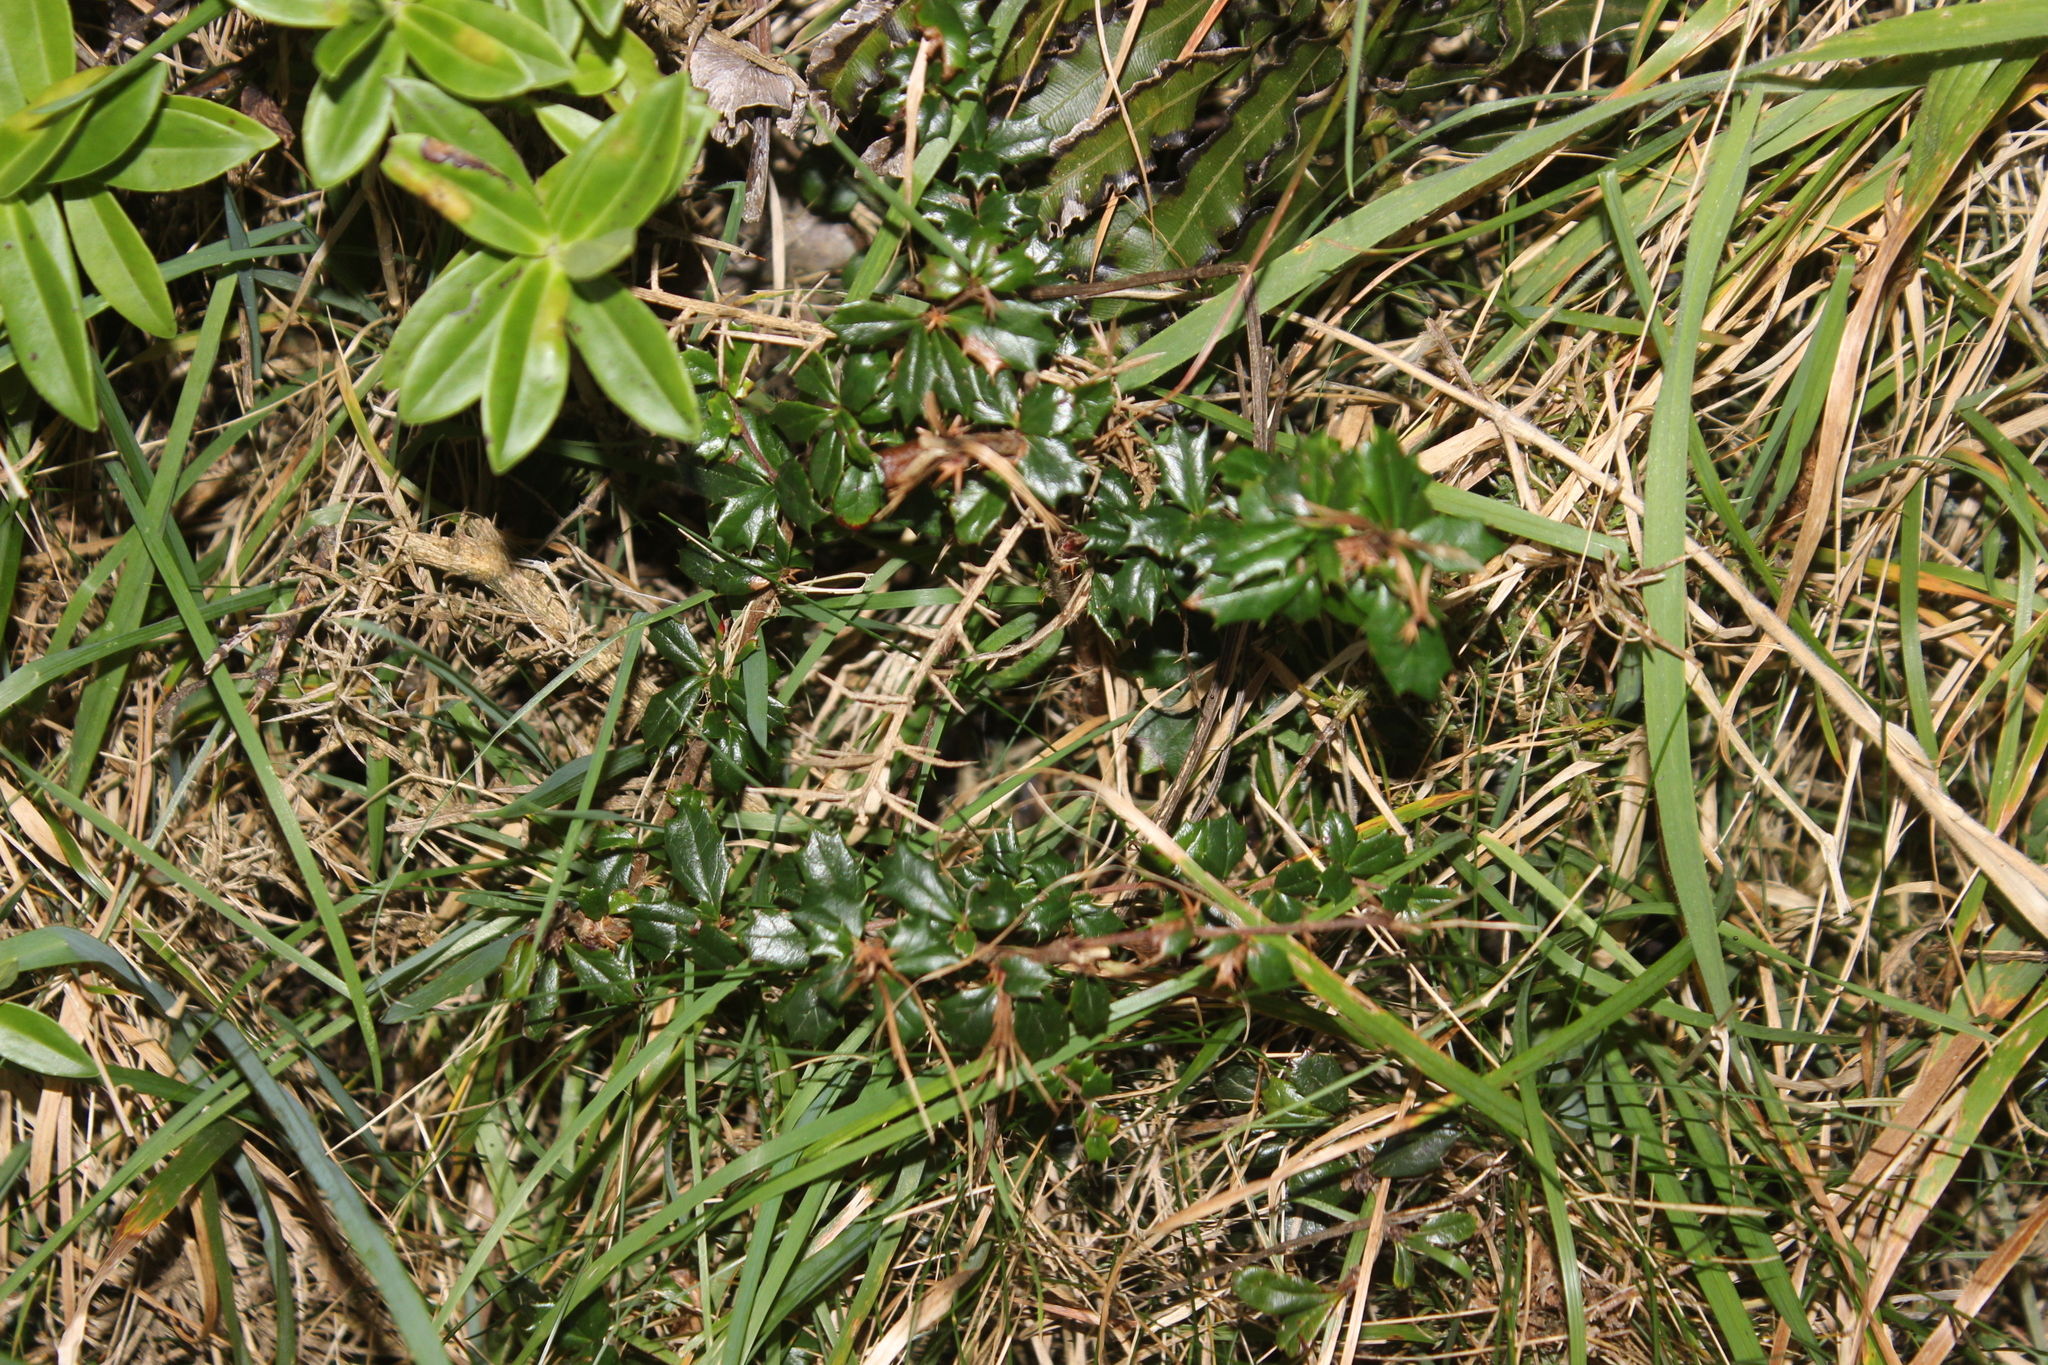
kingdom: Plantae
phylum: Tracheophyta
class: Magnoliopsida
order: Ranunculales
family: Berberidaceae
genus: Berberis
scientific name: Berberis darwinii
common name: Darwin's barberry
